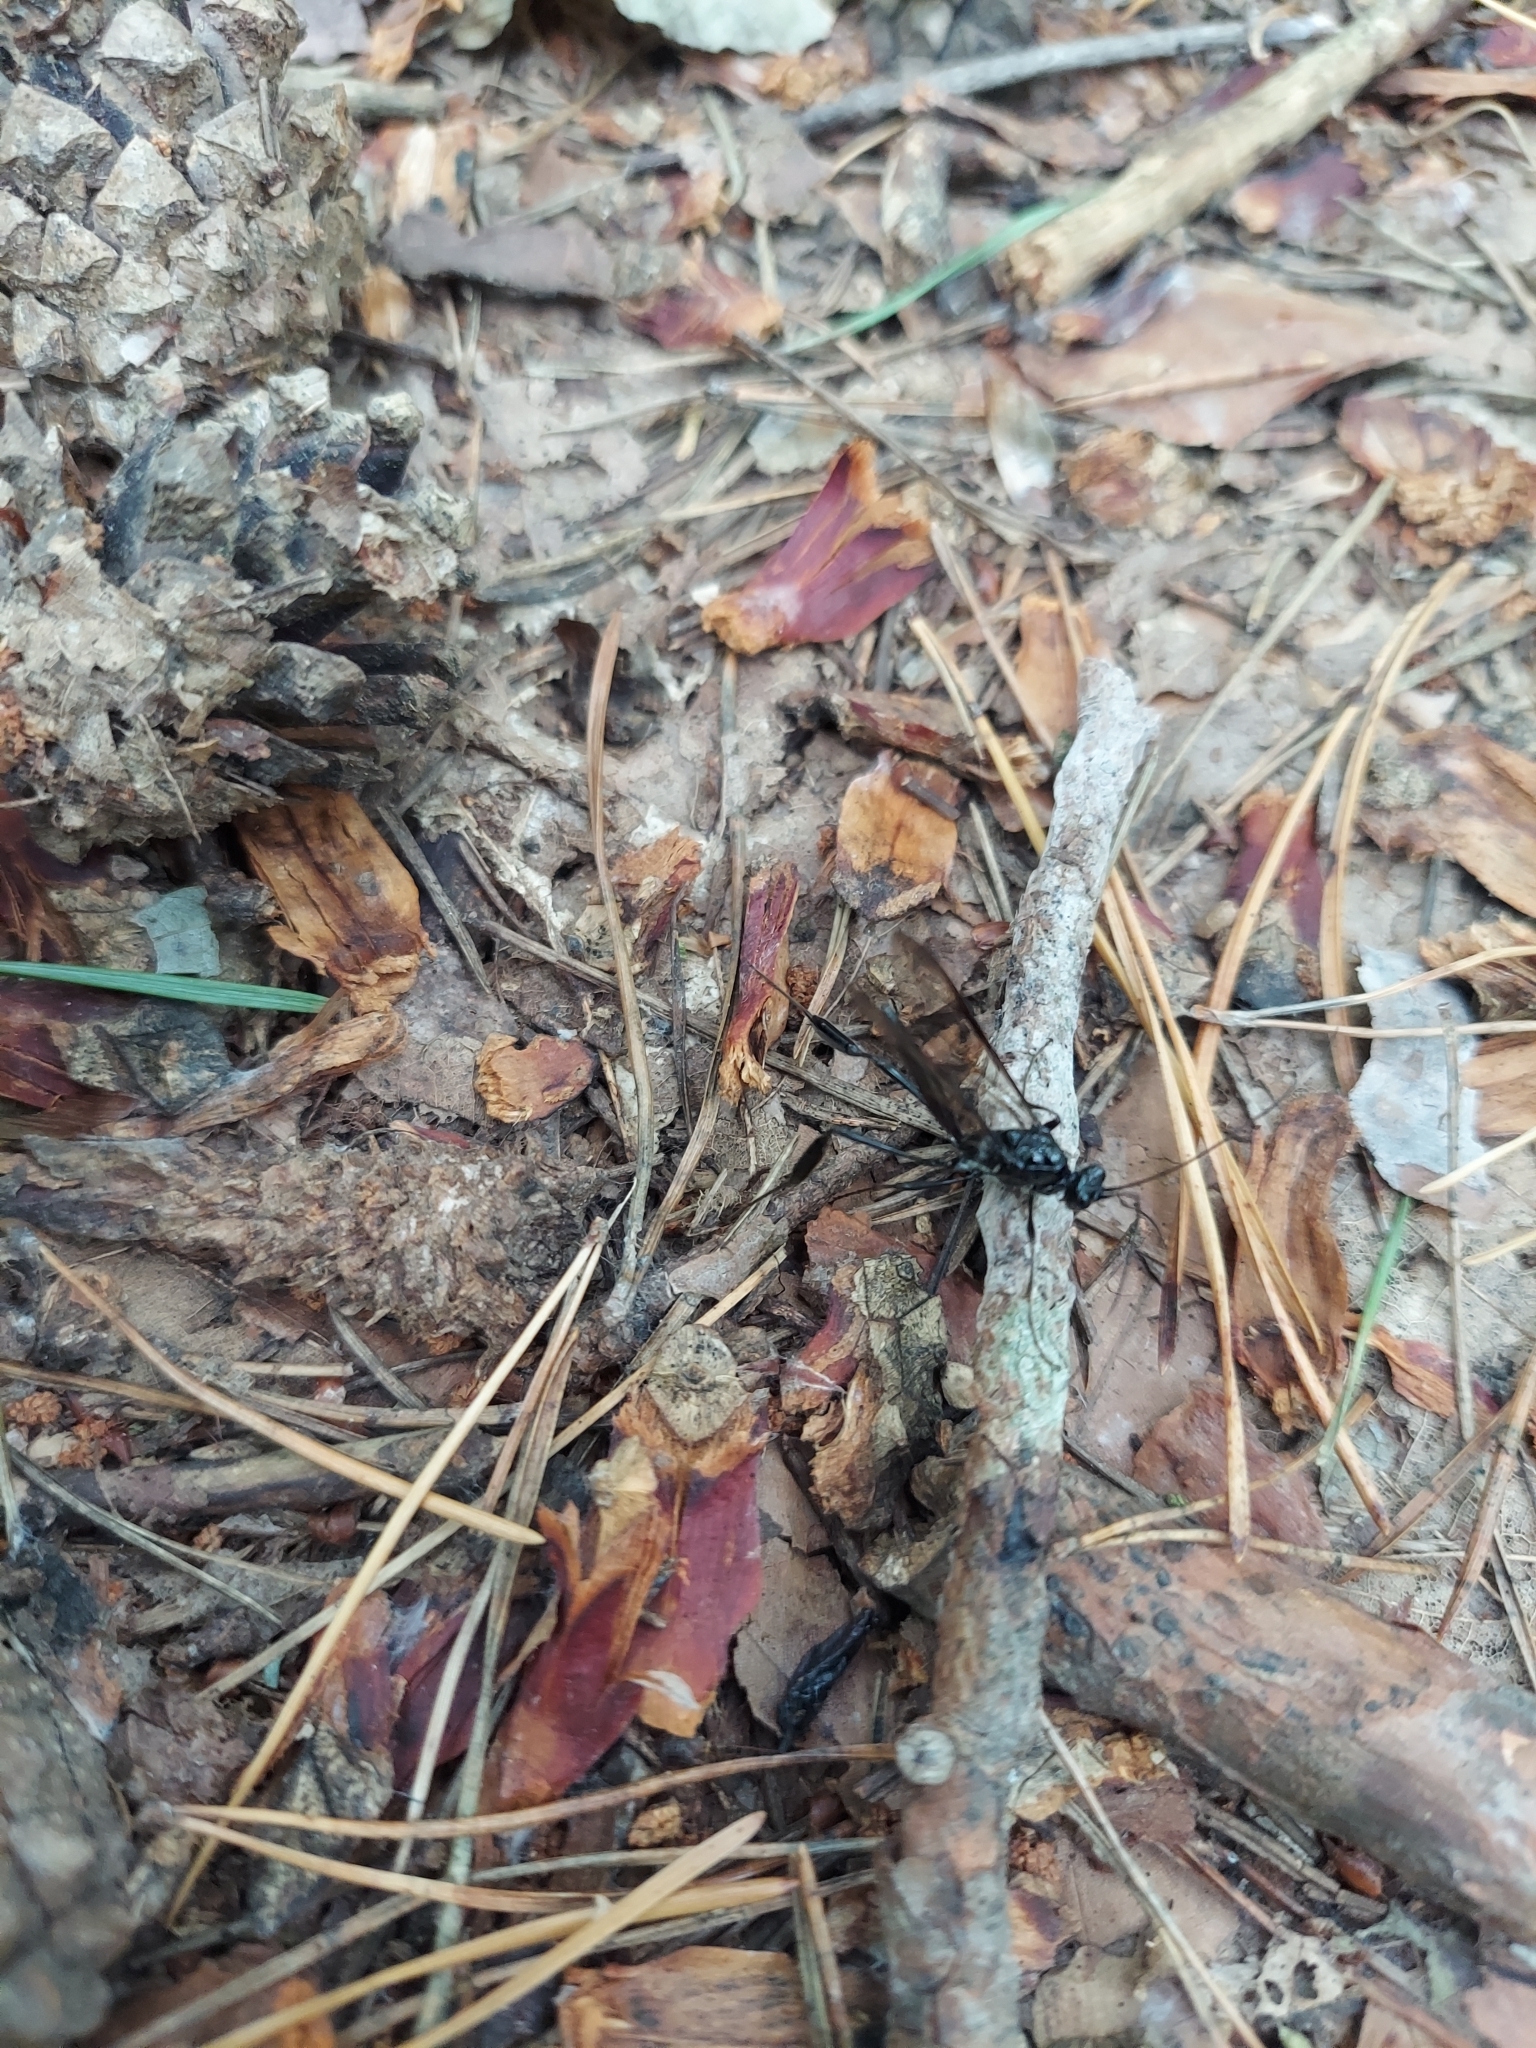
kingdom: Animalia
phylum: Arthropoda
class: Insecta
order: Hymenoptera
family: Pelecinidae
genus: Pelecinus
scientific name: Pelecinus polyturator
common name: American pelecinid wasp
